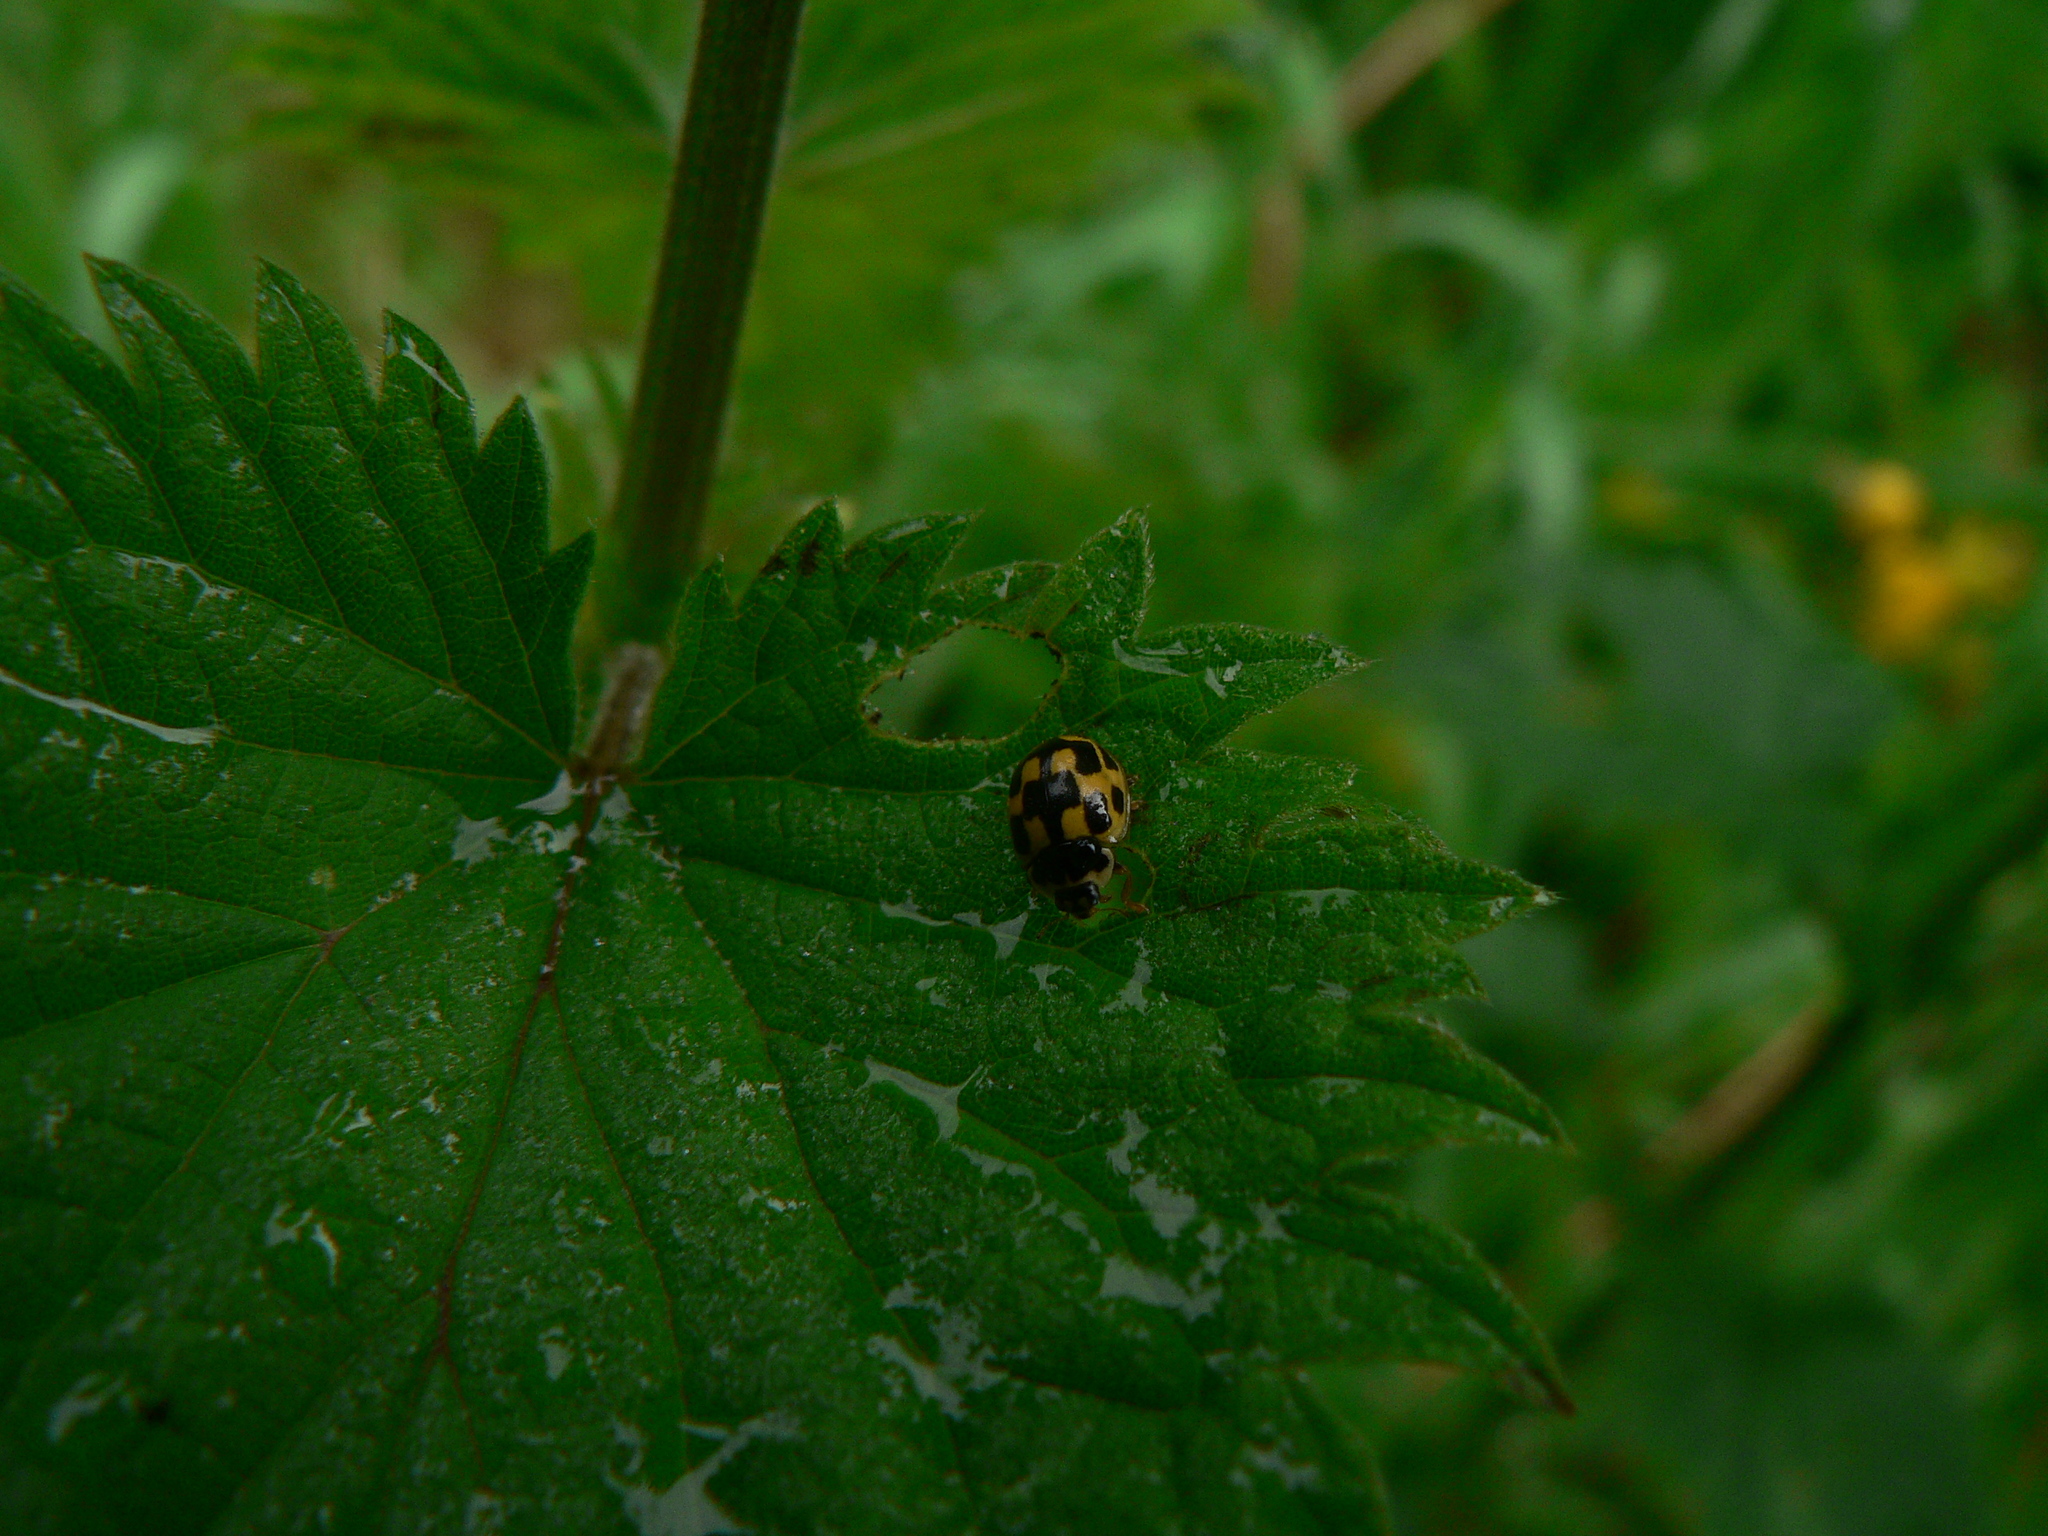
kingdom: Animalia
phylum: Arthropoda
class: Insecta
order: Coleoptera
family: Coccinellidae
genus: Propylaea
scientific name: Propylaea quatuordecimpunctata
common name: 14-spotted ladybird beetle
